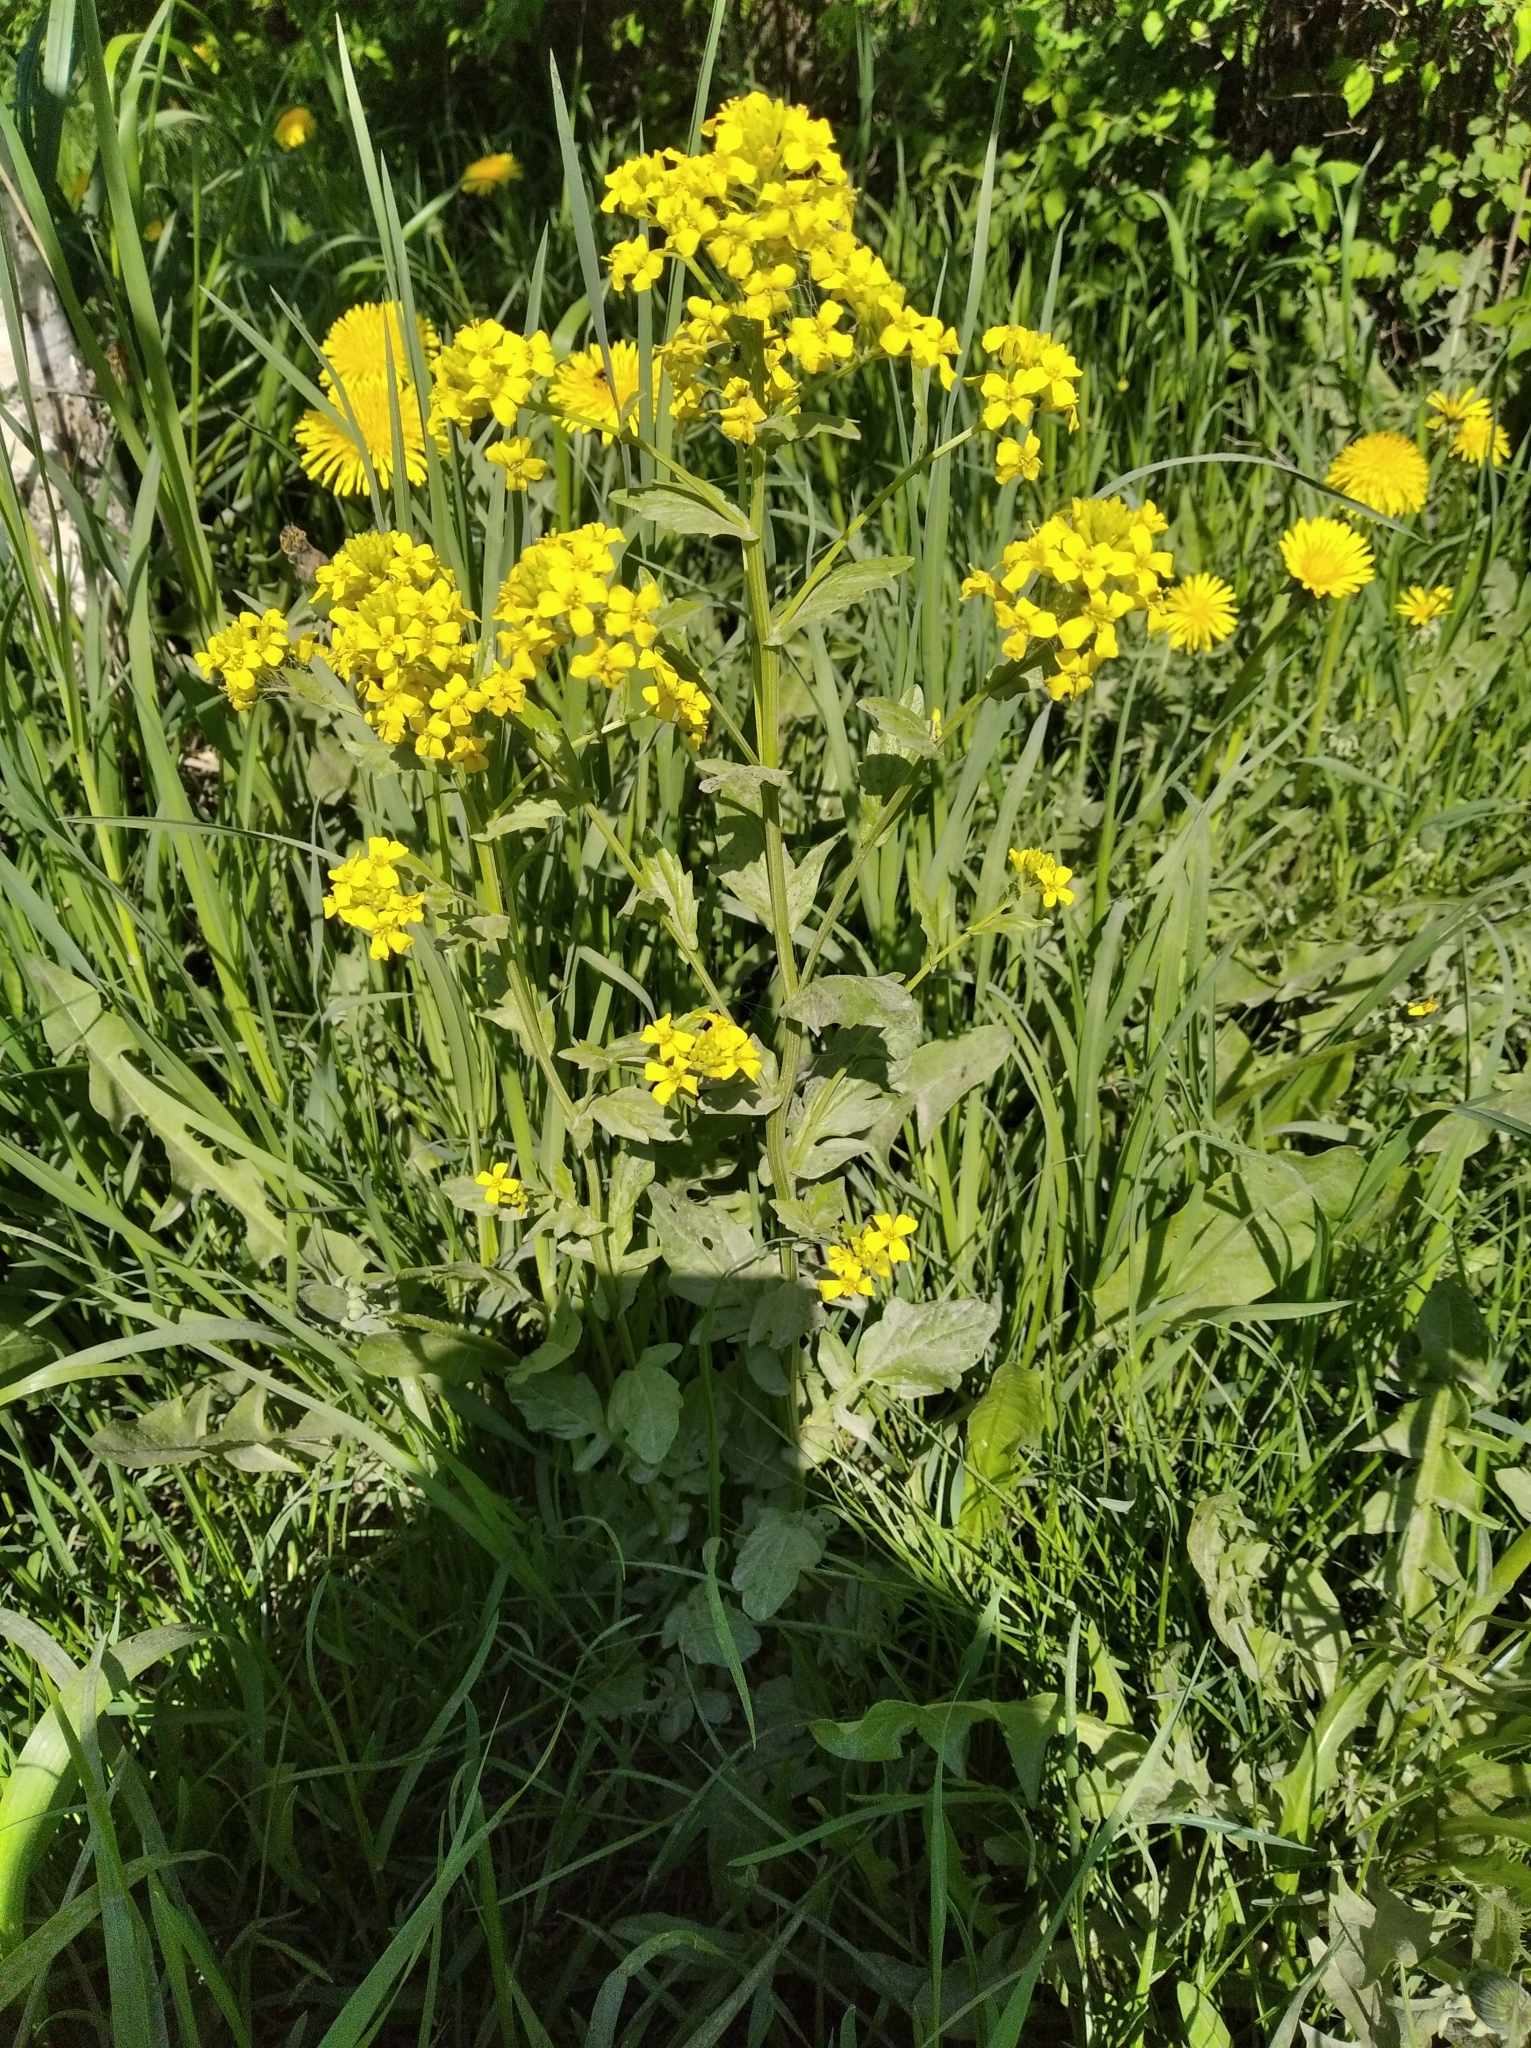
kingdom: Plantae
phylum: Tracheophyta
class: Magnoliopsida
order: Brassicales
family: Brassicaceae
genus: Barbarea
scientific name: Barbarea vulgaris
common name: Cressy-greens
